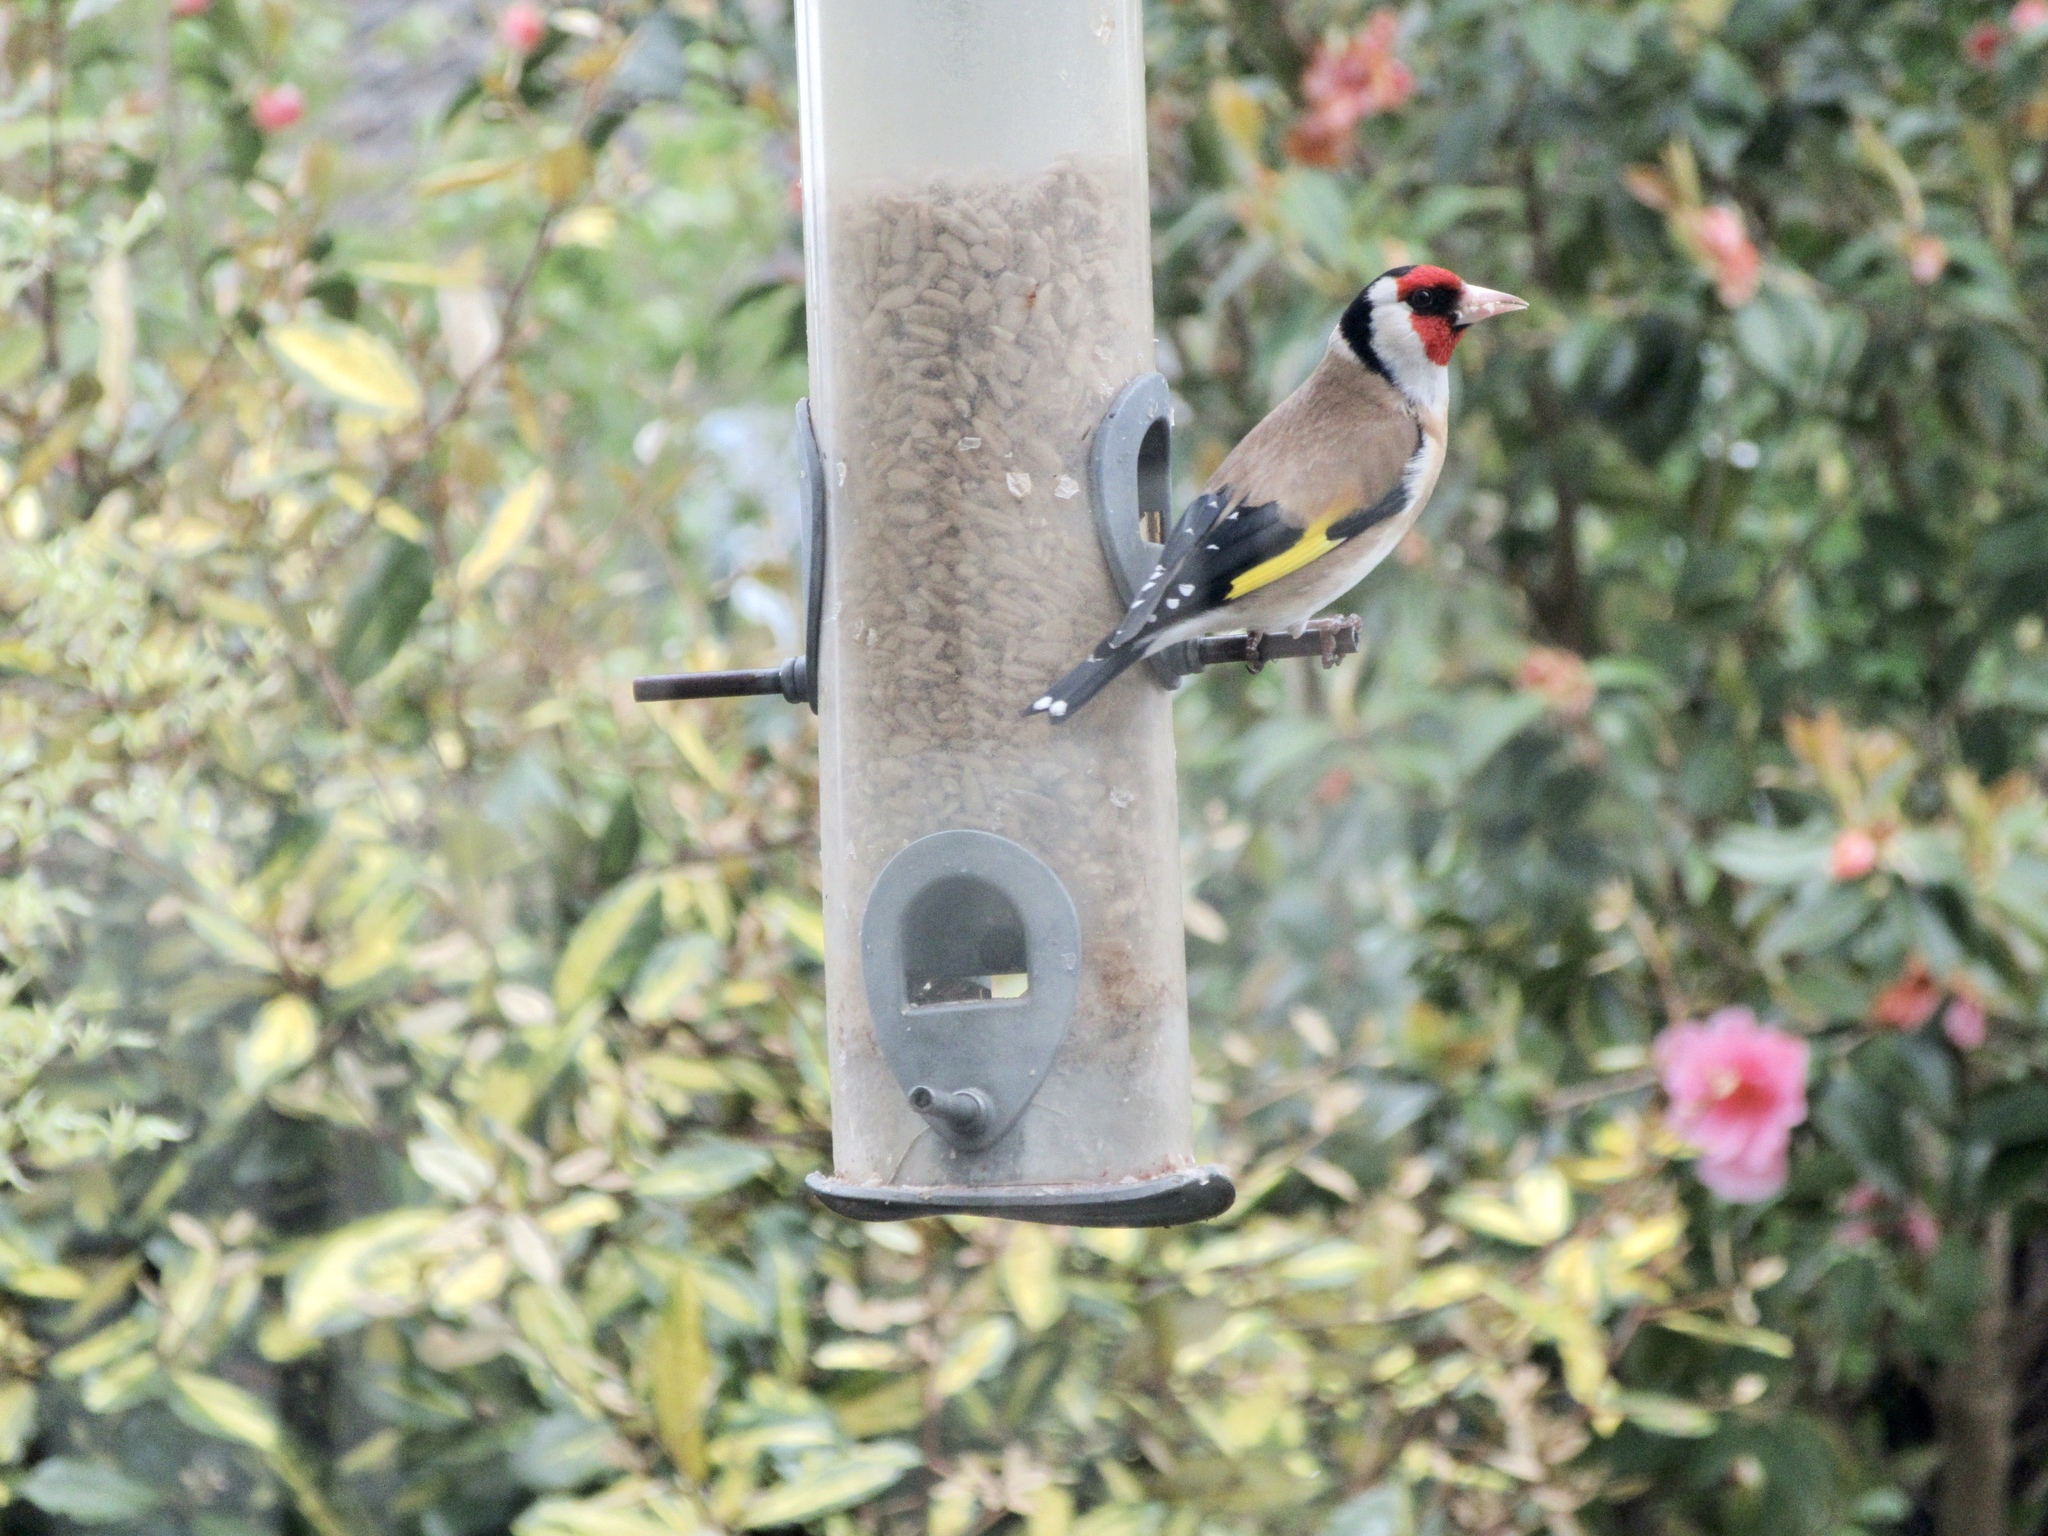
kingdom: Animalia
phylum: Chordata
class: Aves
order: Passeriformes
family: Fringillidae
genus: Carduelis
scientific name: Carduelis carduelis
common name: European goldfinch
